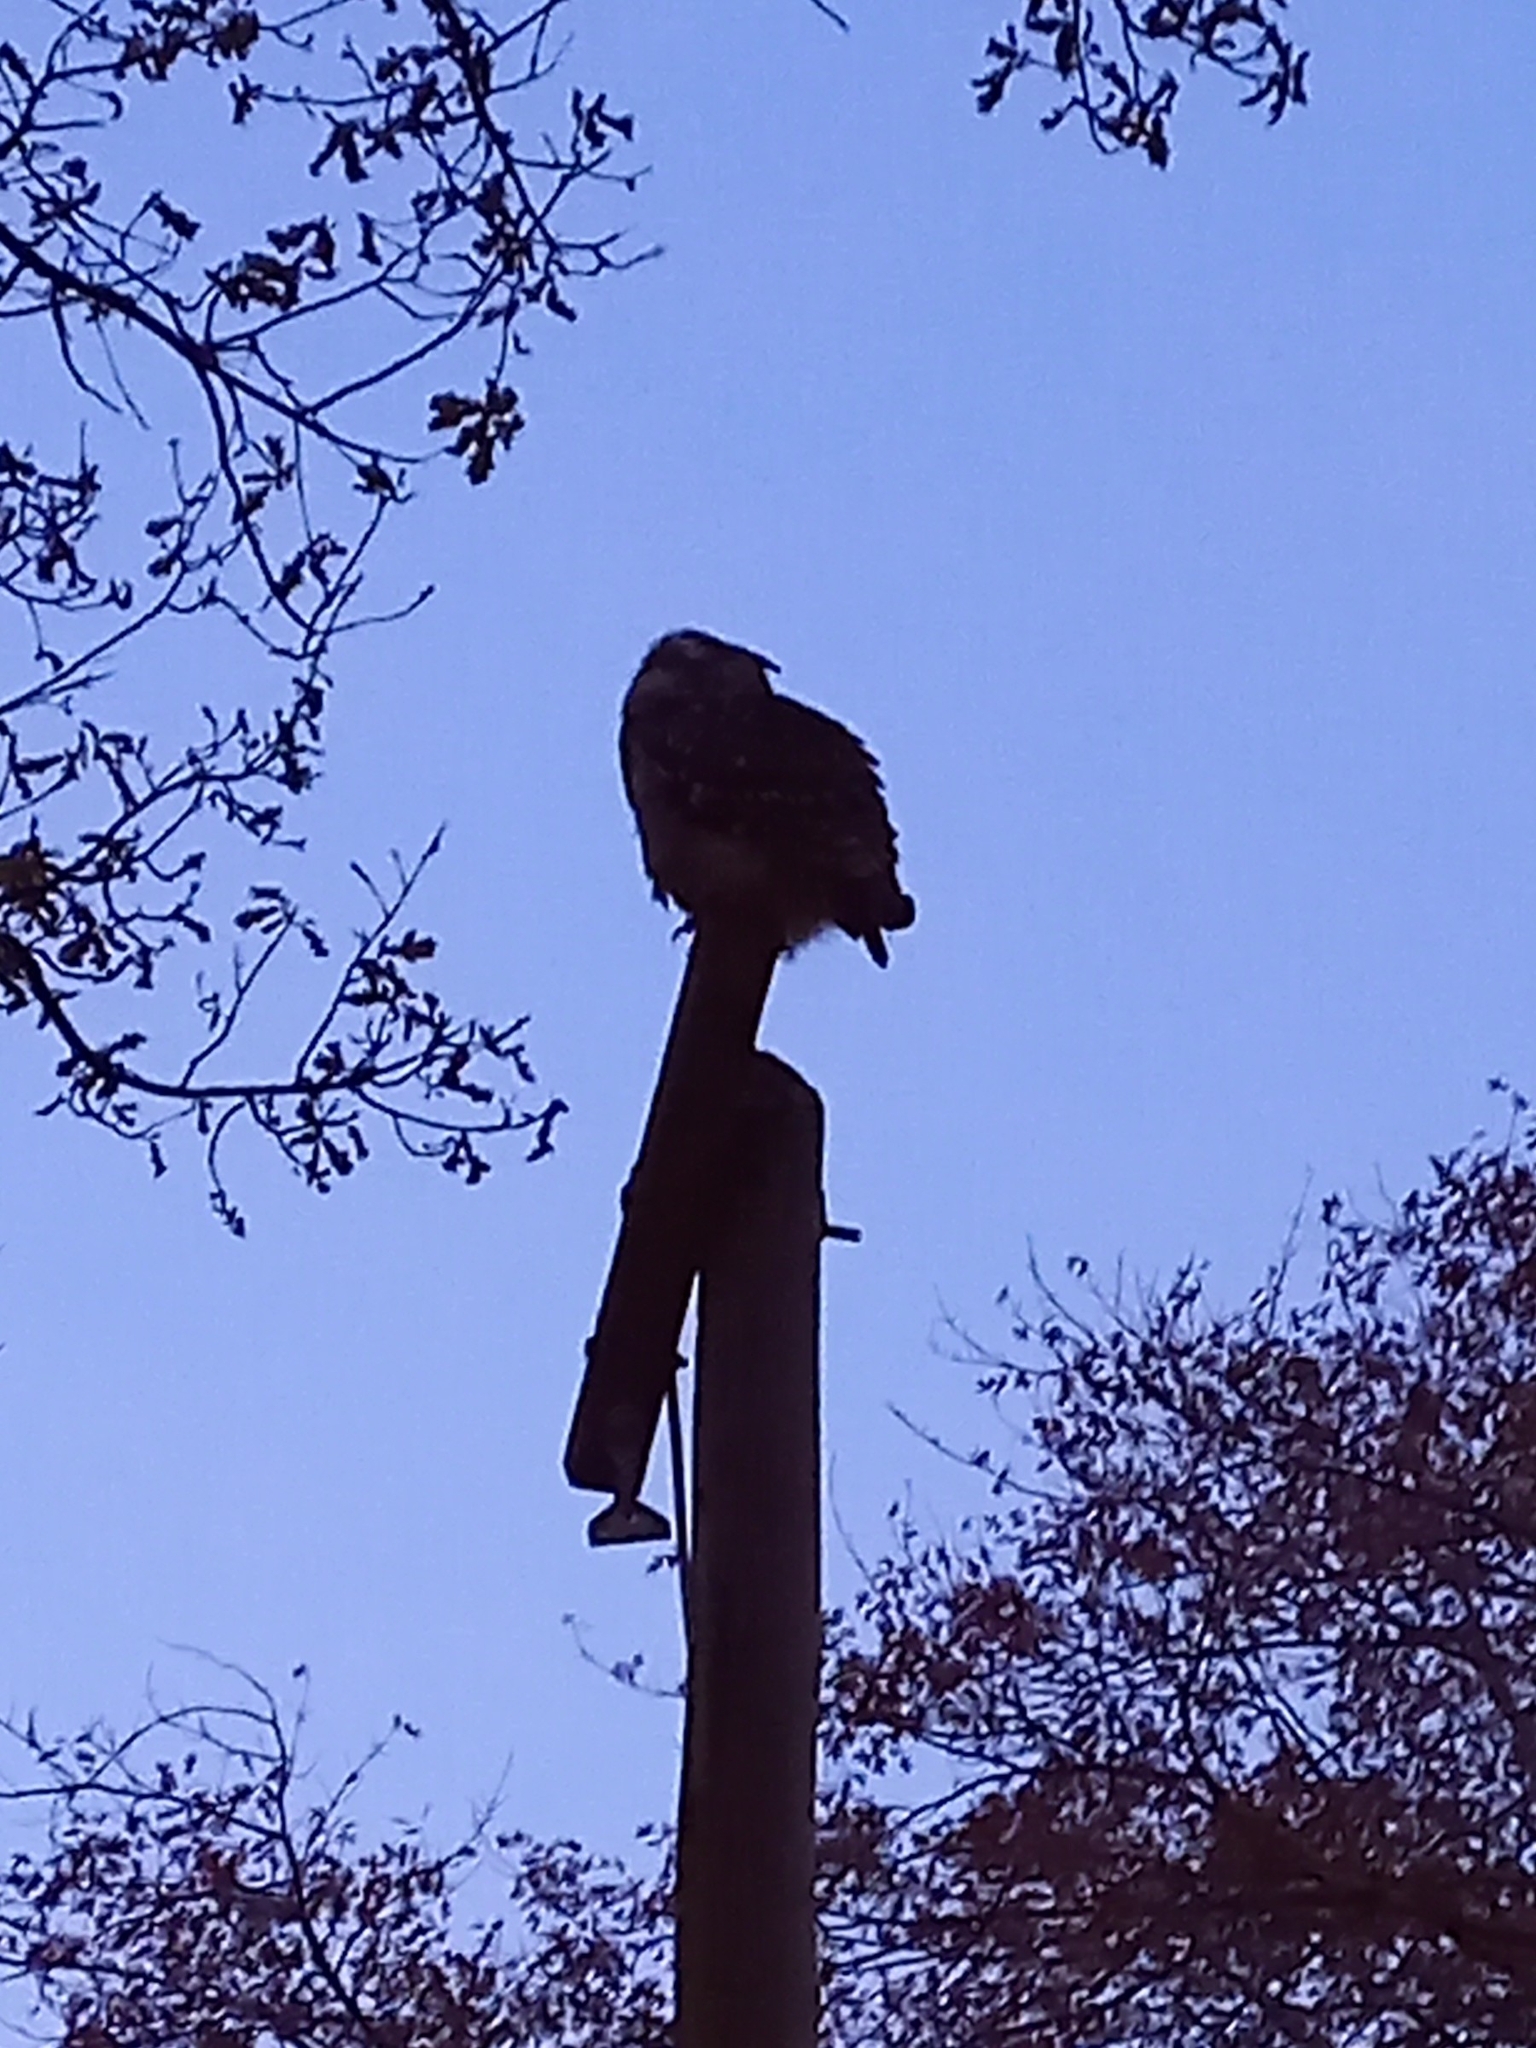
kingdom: Animalia
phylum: Chordata
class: Aves
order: Strigiformes
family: Strigidae
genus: Bubo
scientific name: Bubo africanus
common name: Spotted eagle-owl
